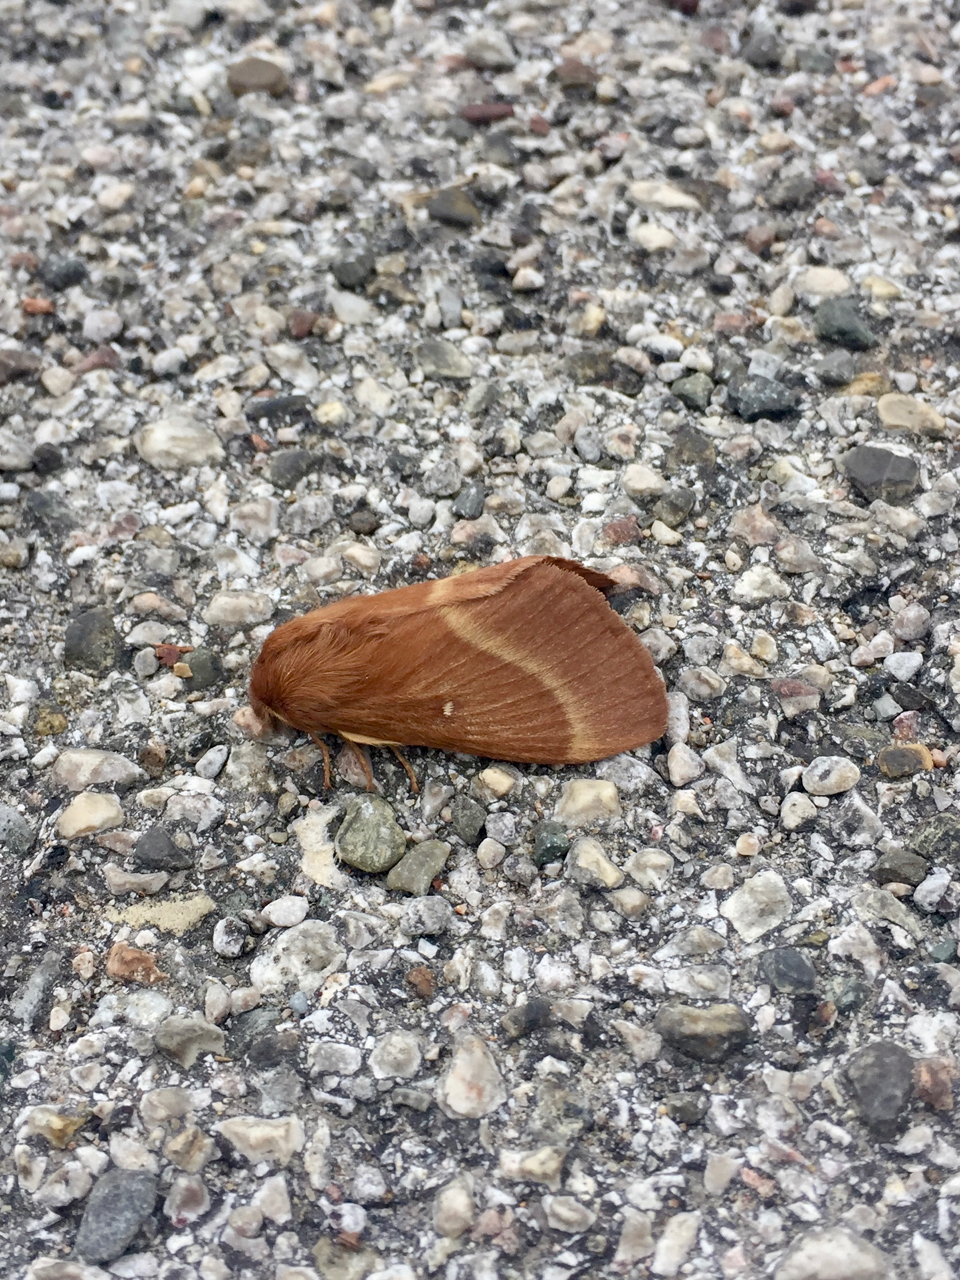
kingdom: Animalia
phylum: Arthropoda
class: Insecta
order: Lepidoptera
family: Lasiocampidae
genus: Lasiocampa
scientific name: Lasiocampa trifolii
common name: Grass eggar
